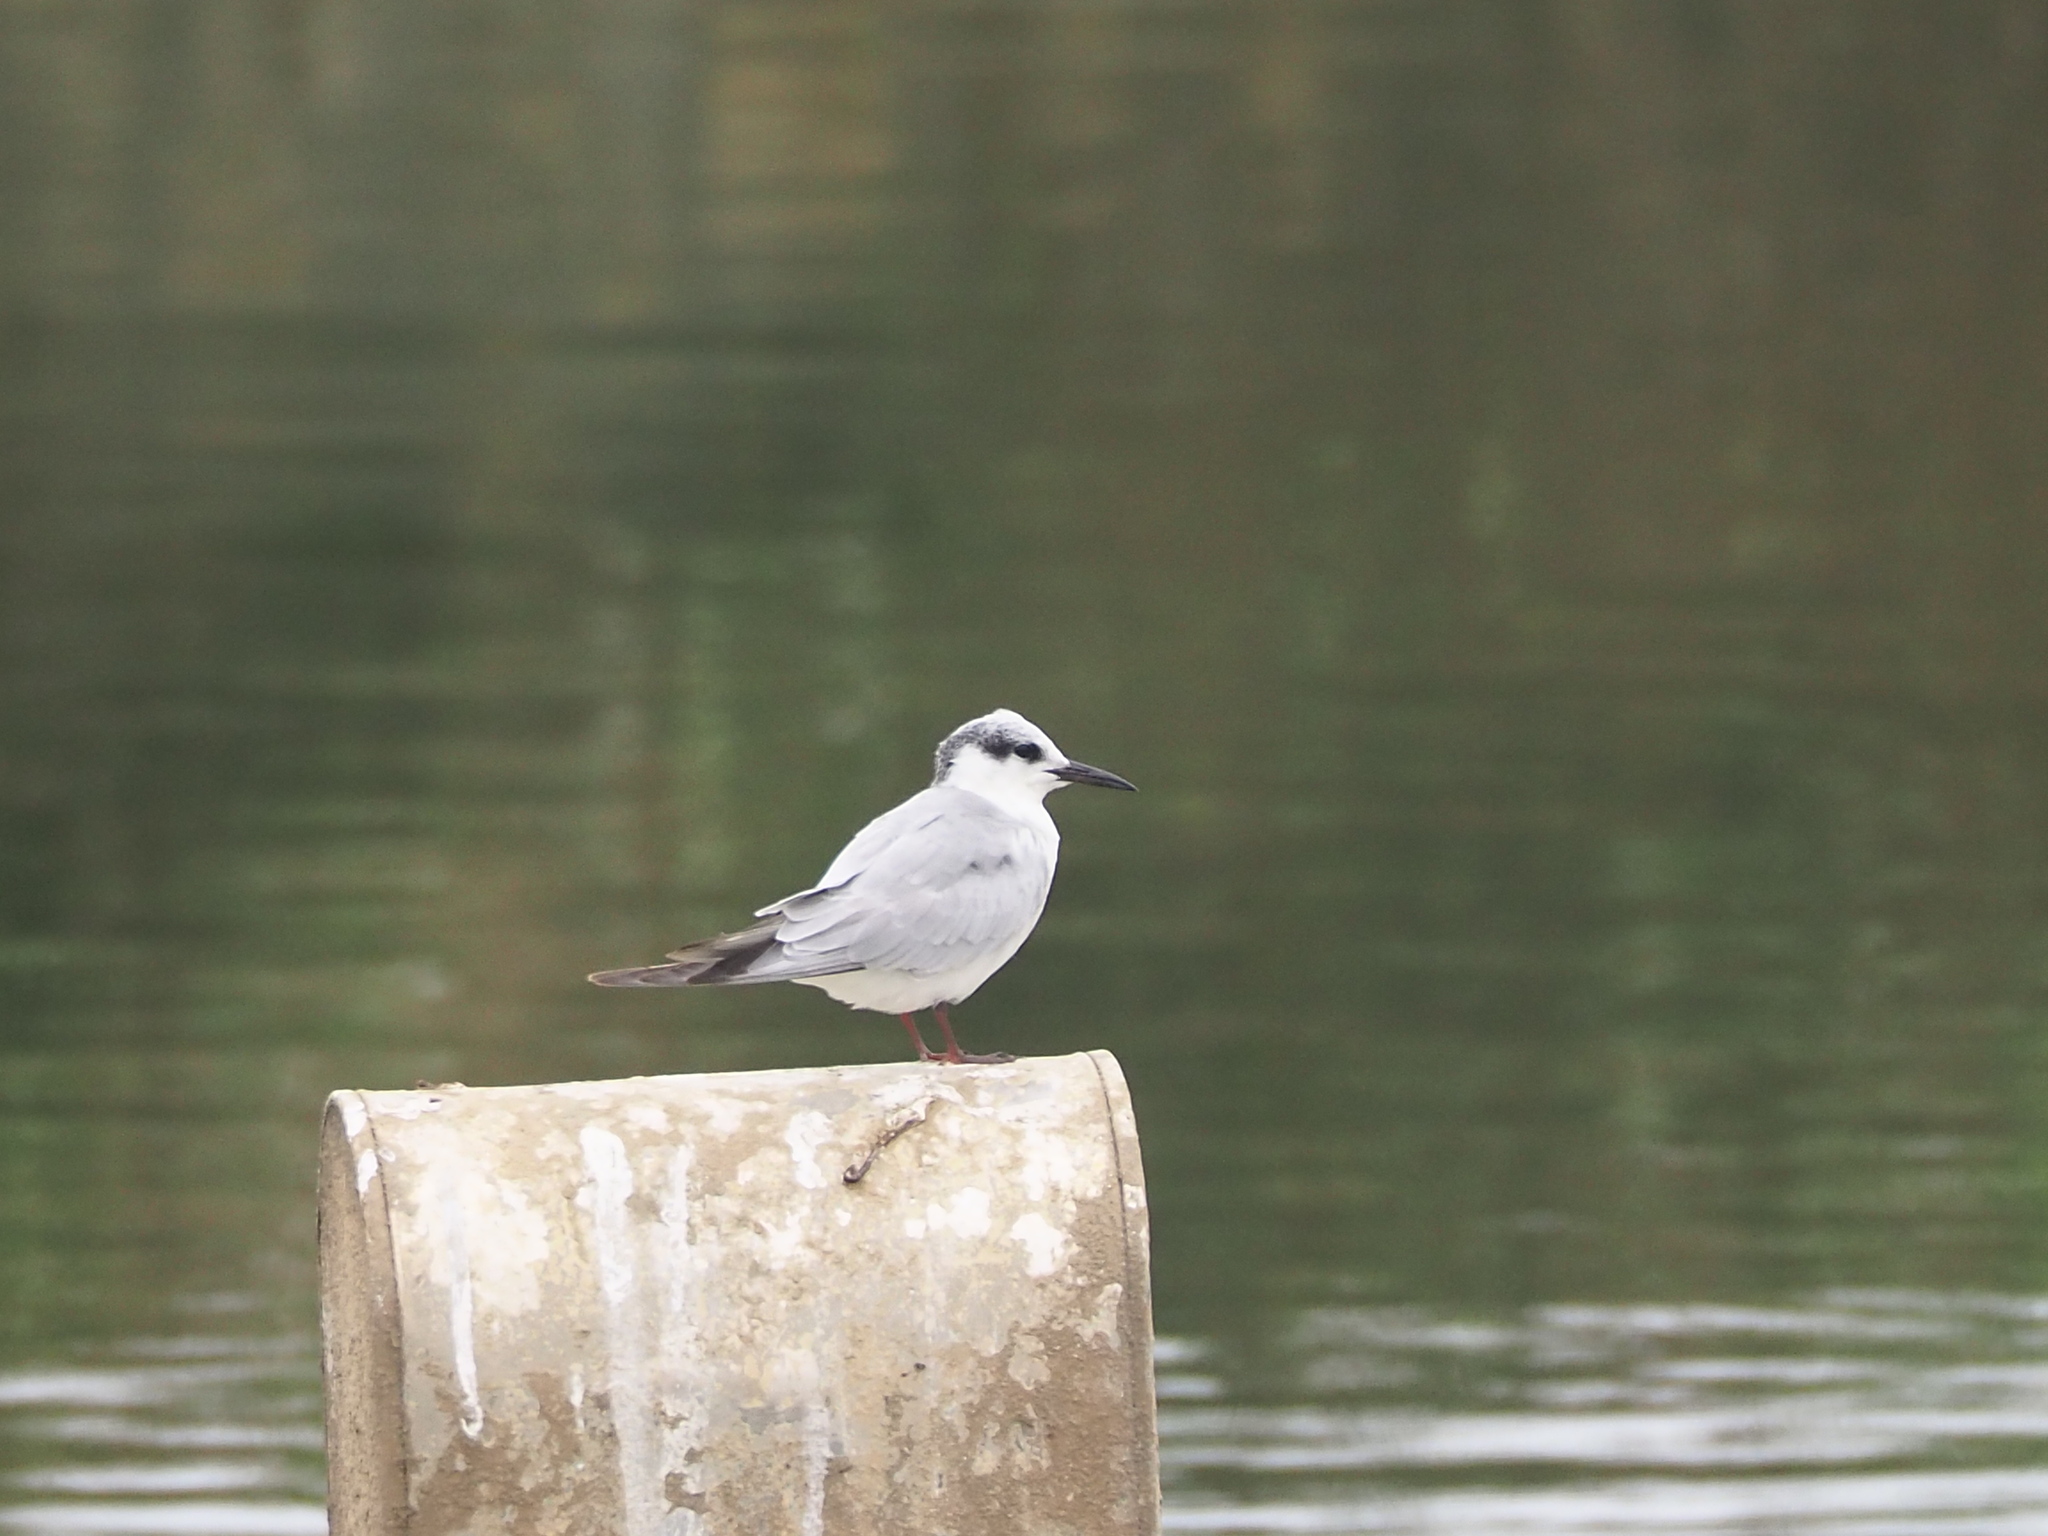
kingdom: Animalia
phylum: Chordata
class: Aves
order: Charadriiformes
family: Laridae
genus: Chlidonias
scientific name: Chlidonias hybrida
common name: Whiskered tern
